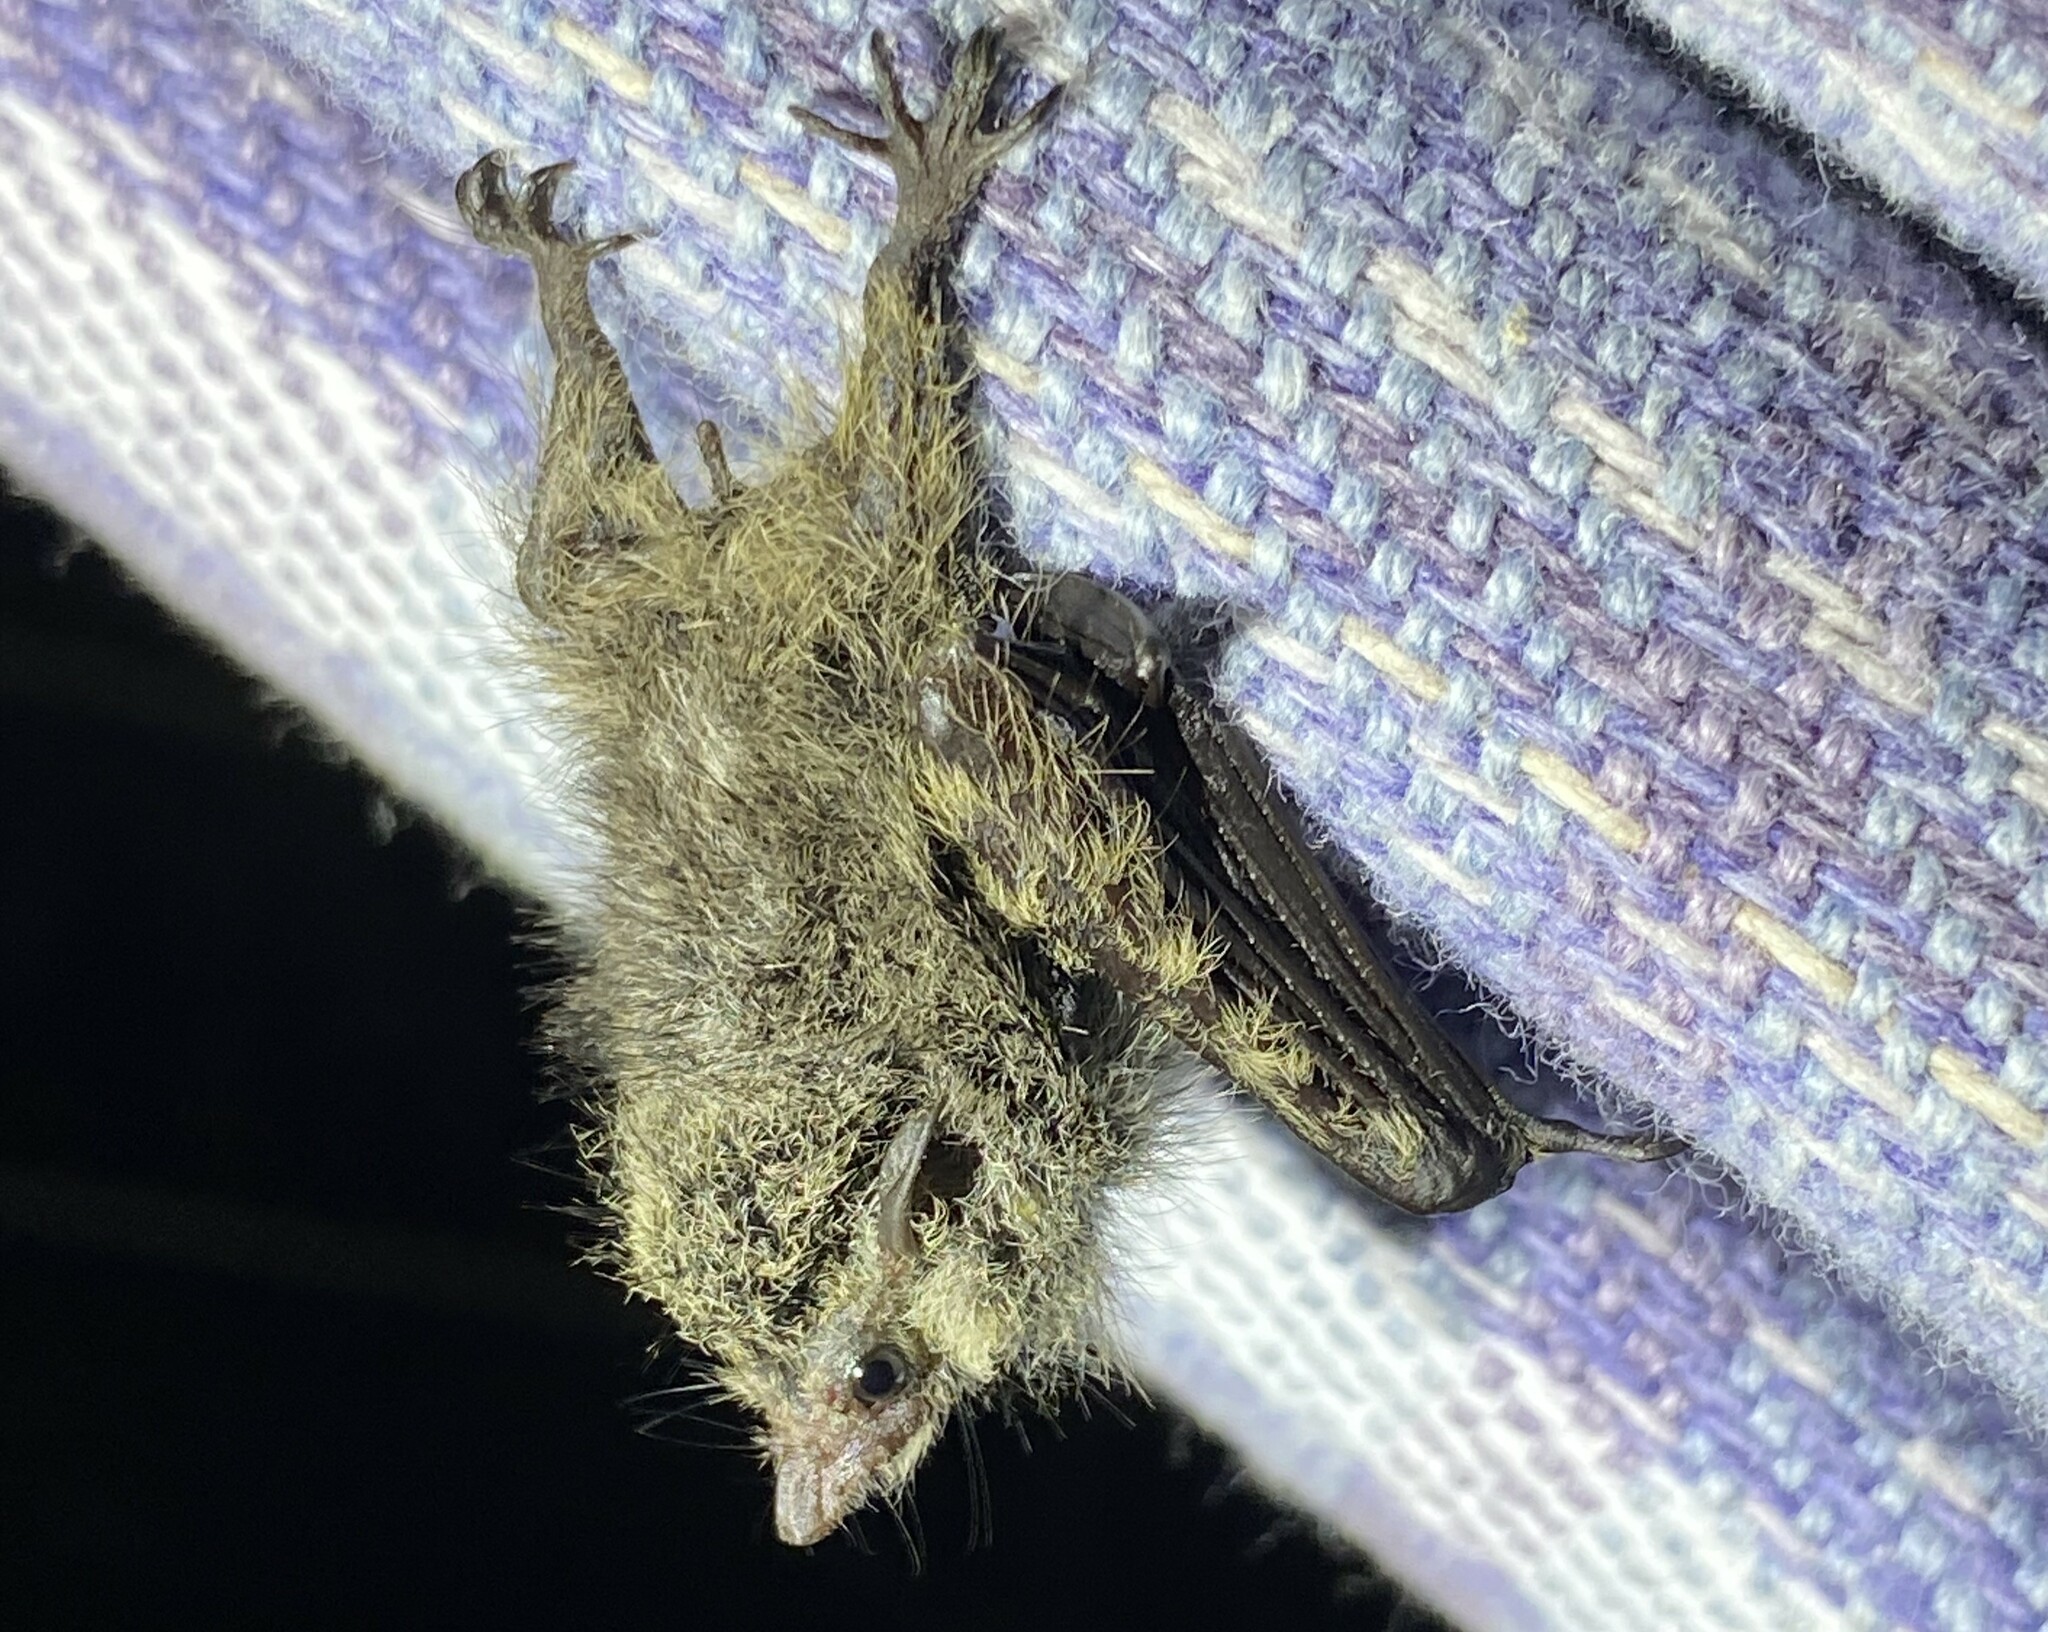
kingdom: Animalia
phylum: Chordata
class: Mammalia
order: Chiroptera
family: Emballonuridae
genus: Rhynchonycteris
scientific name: Rhynchonycteris naso
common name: Proboscis bat
